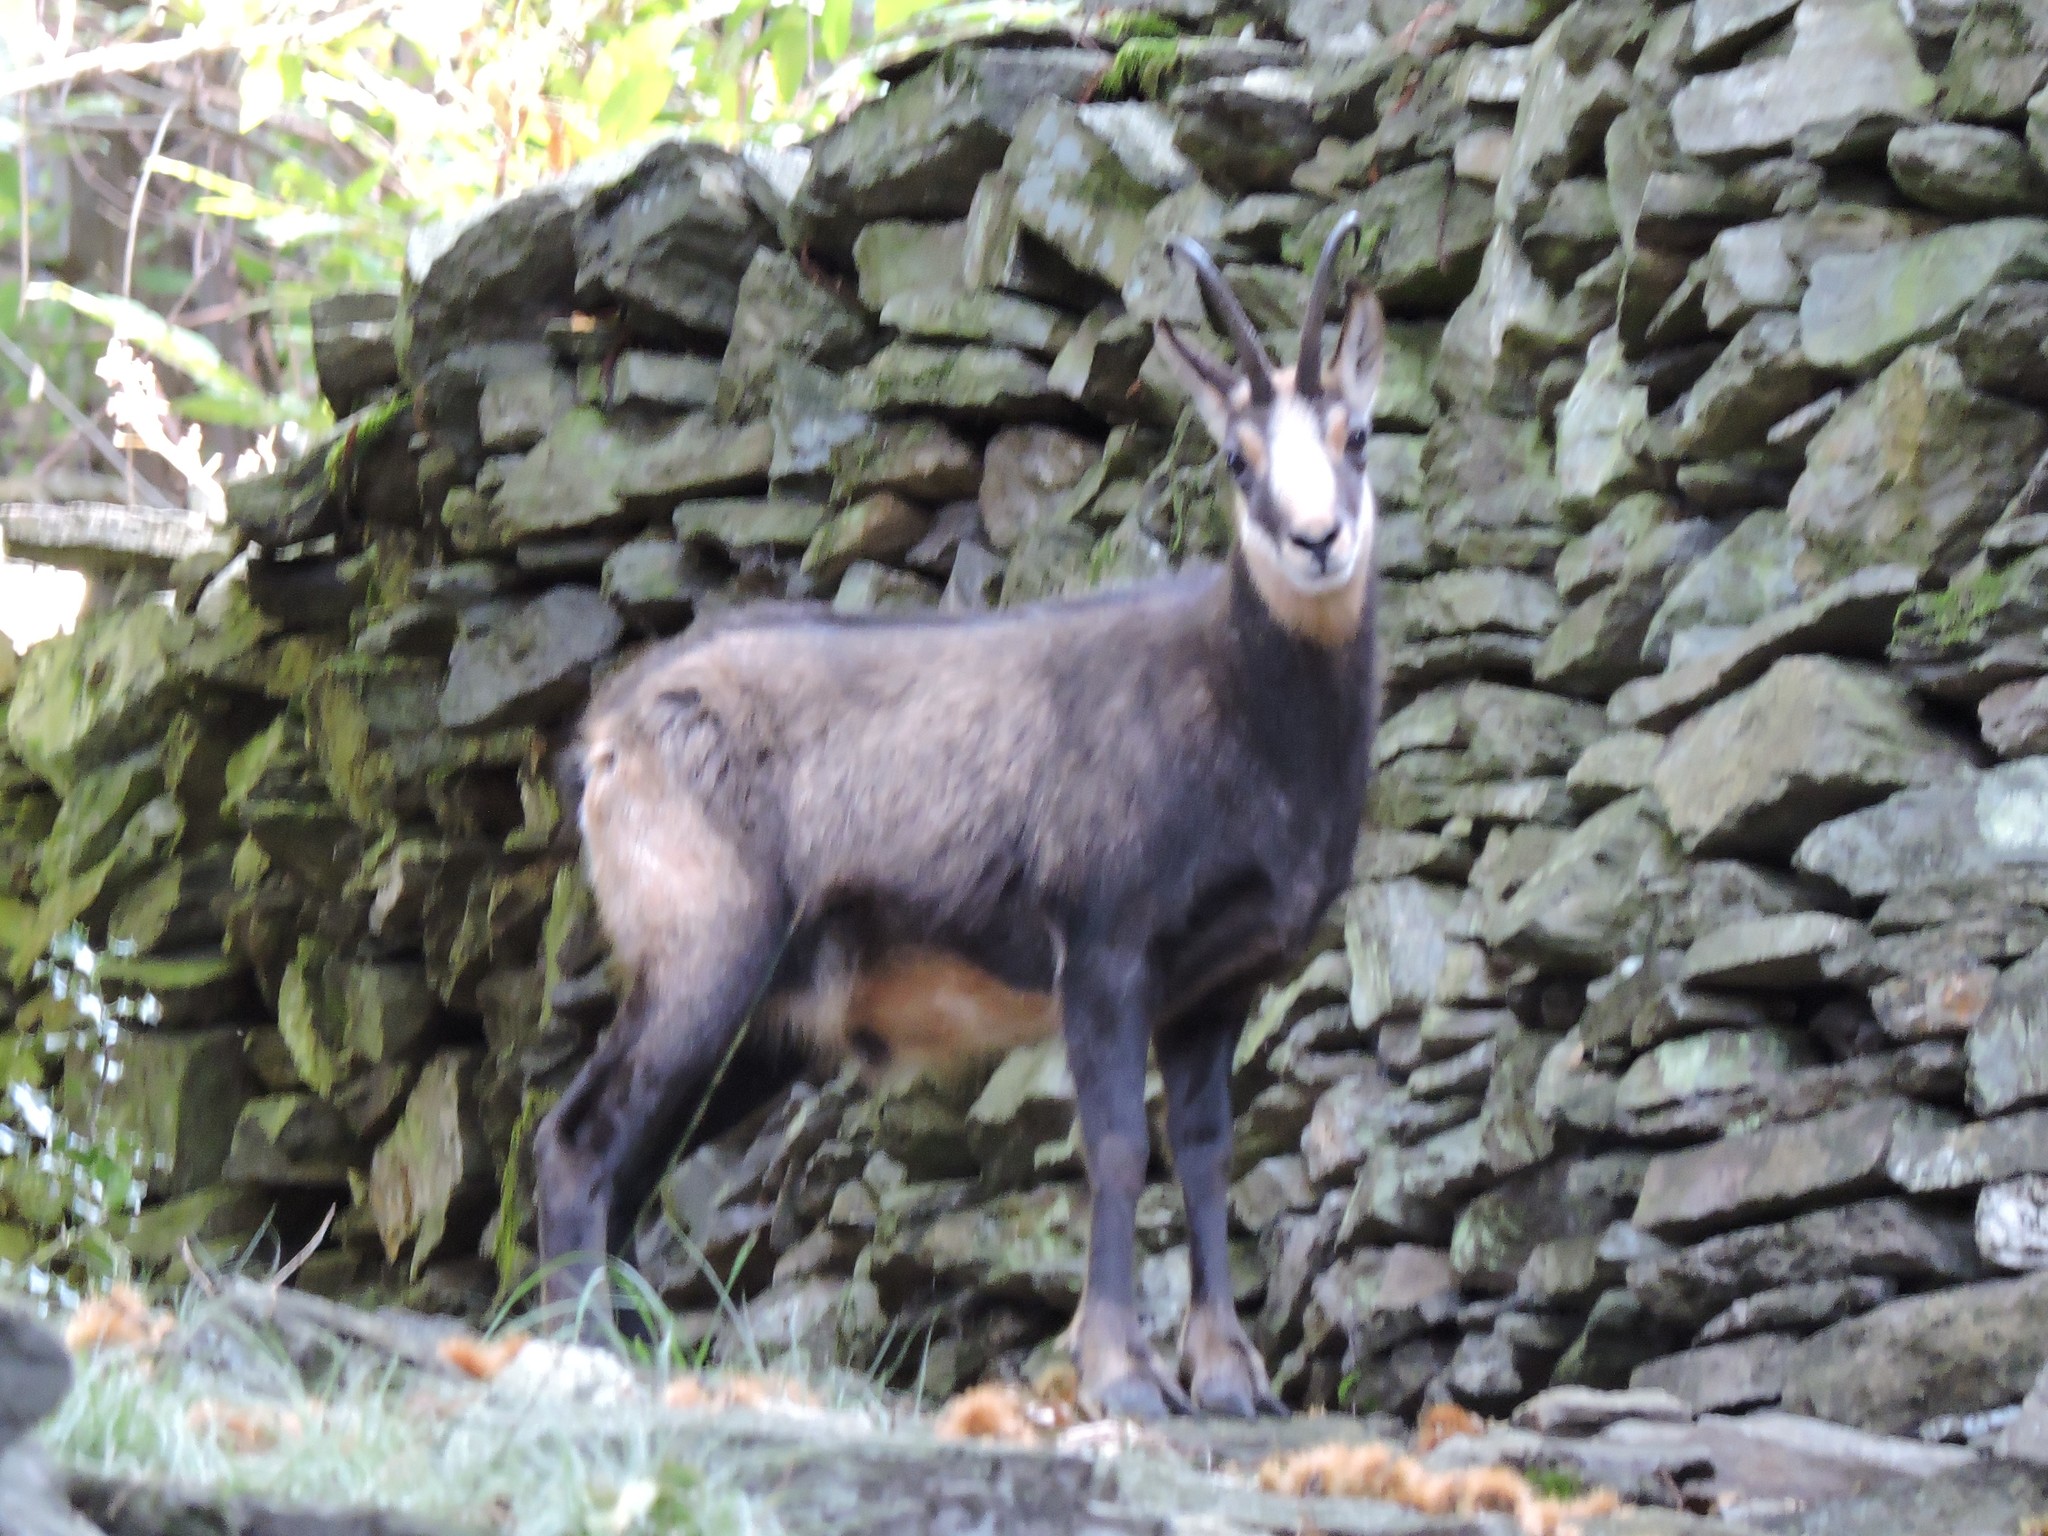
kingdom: Animalia
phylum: Chordata
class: Mammalia
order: Artiodactyla
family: Bovidae
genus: Rupicapra
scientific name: Rupicapra rupicapra
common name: Chamois
